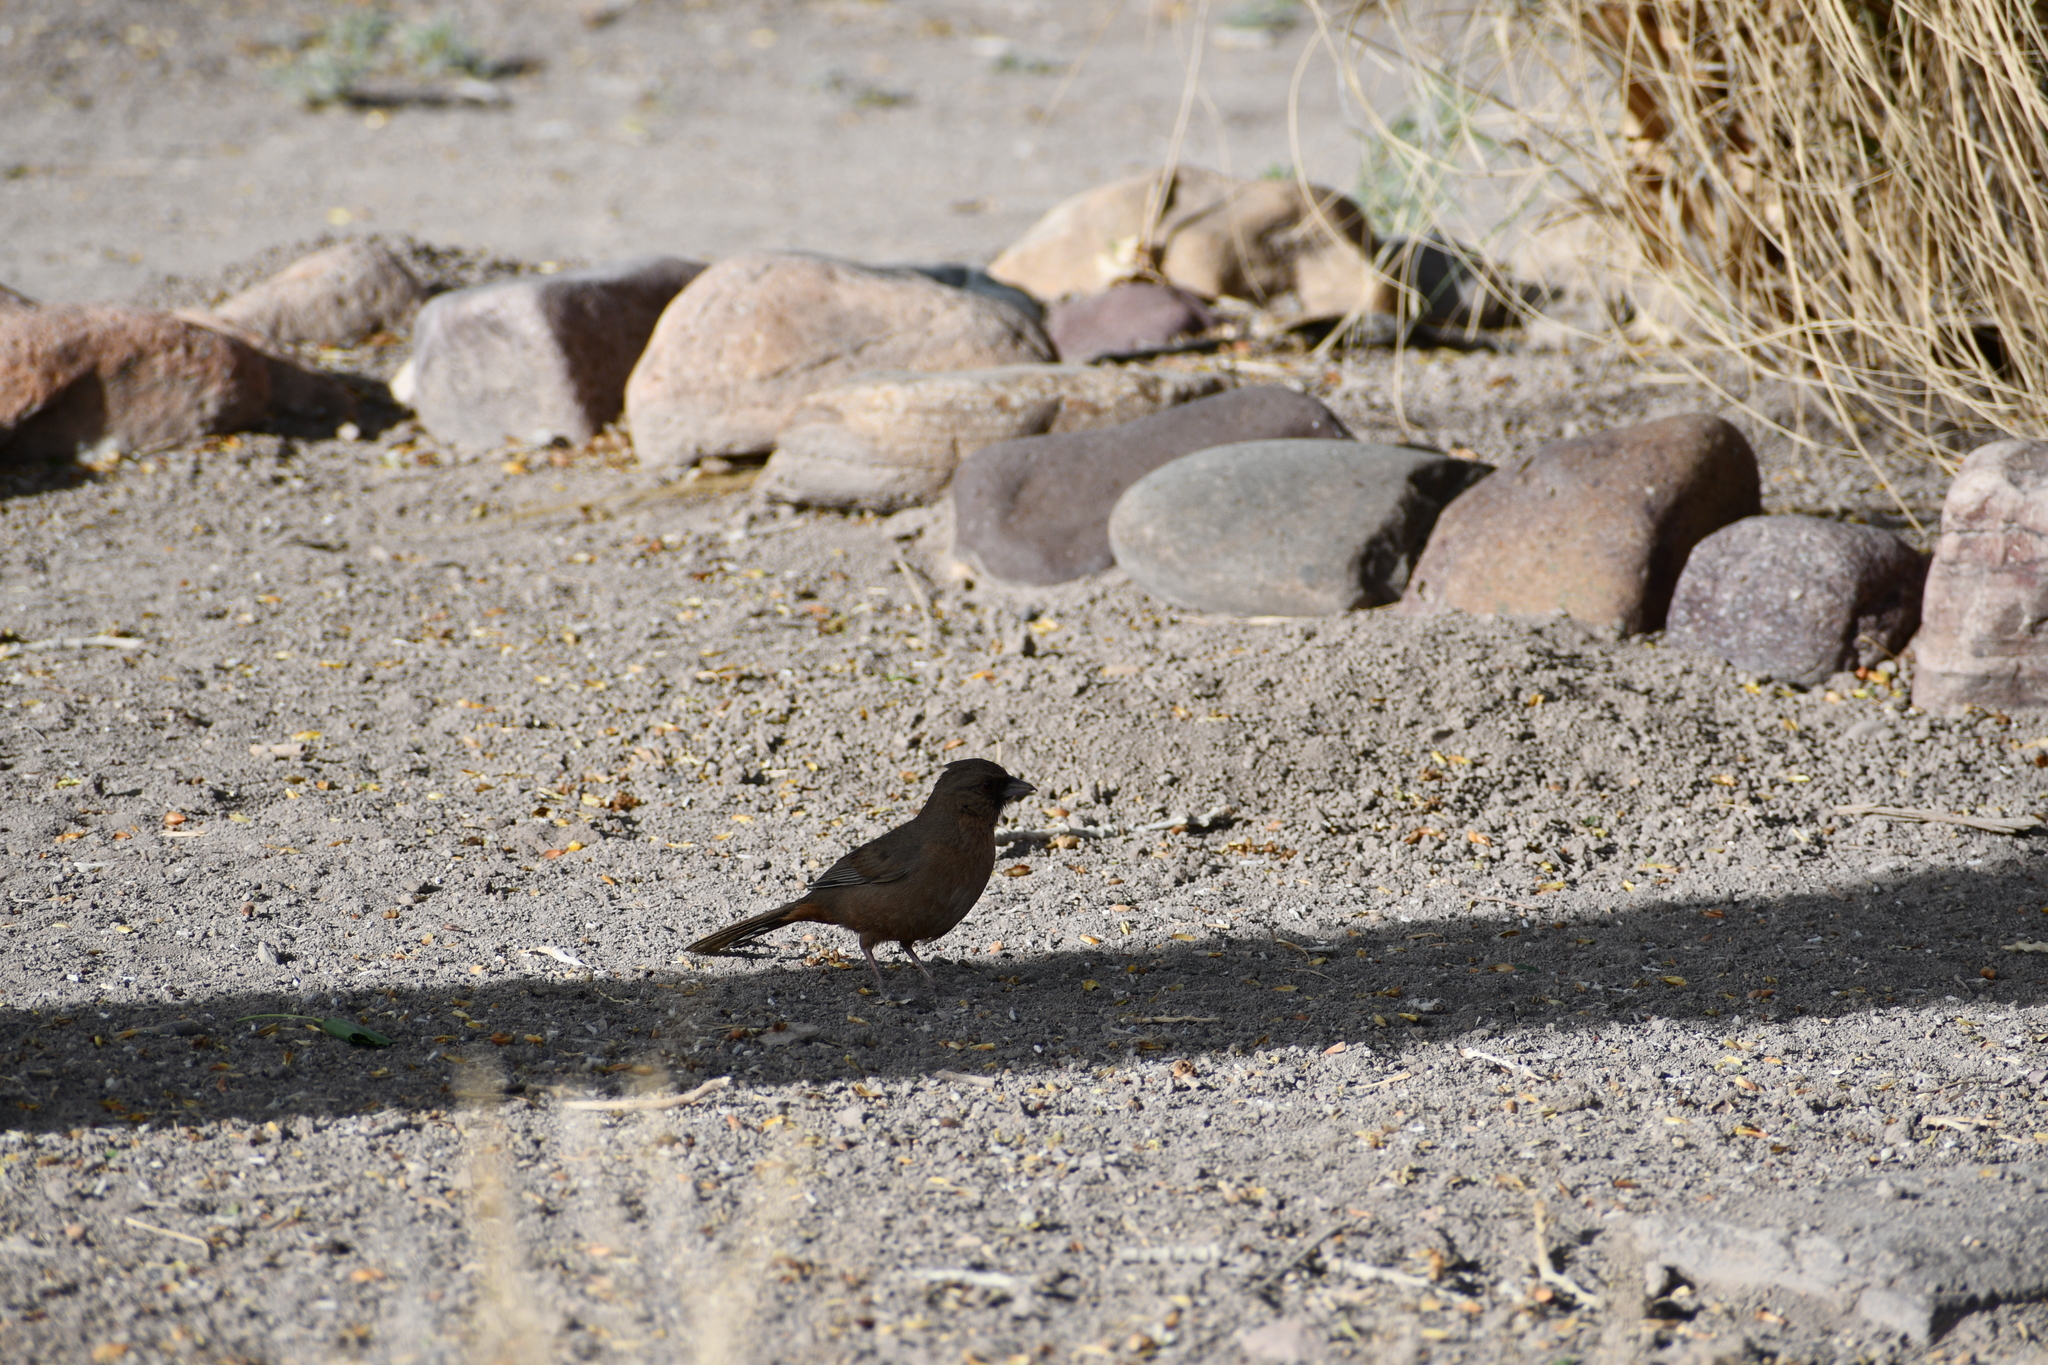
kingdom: Animalia
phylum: Chordata
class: Aves
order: Passeriformes
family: Passerellidae
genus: Melozone
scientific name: Melozone aberti
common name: Abert's towhee
